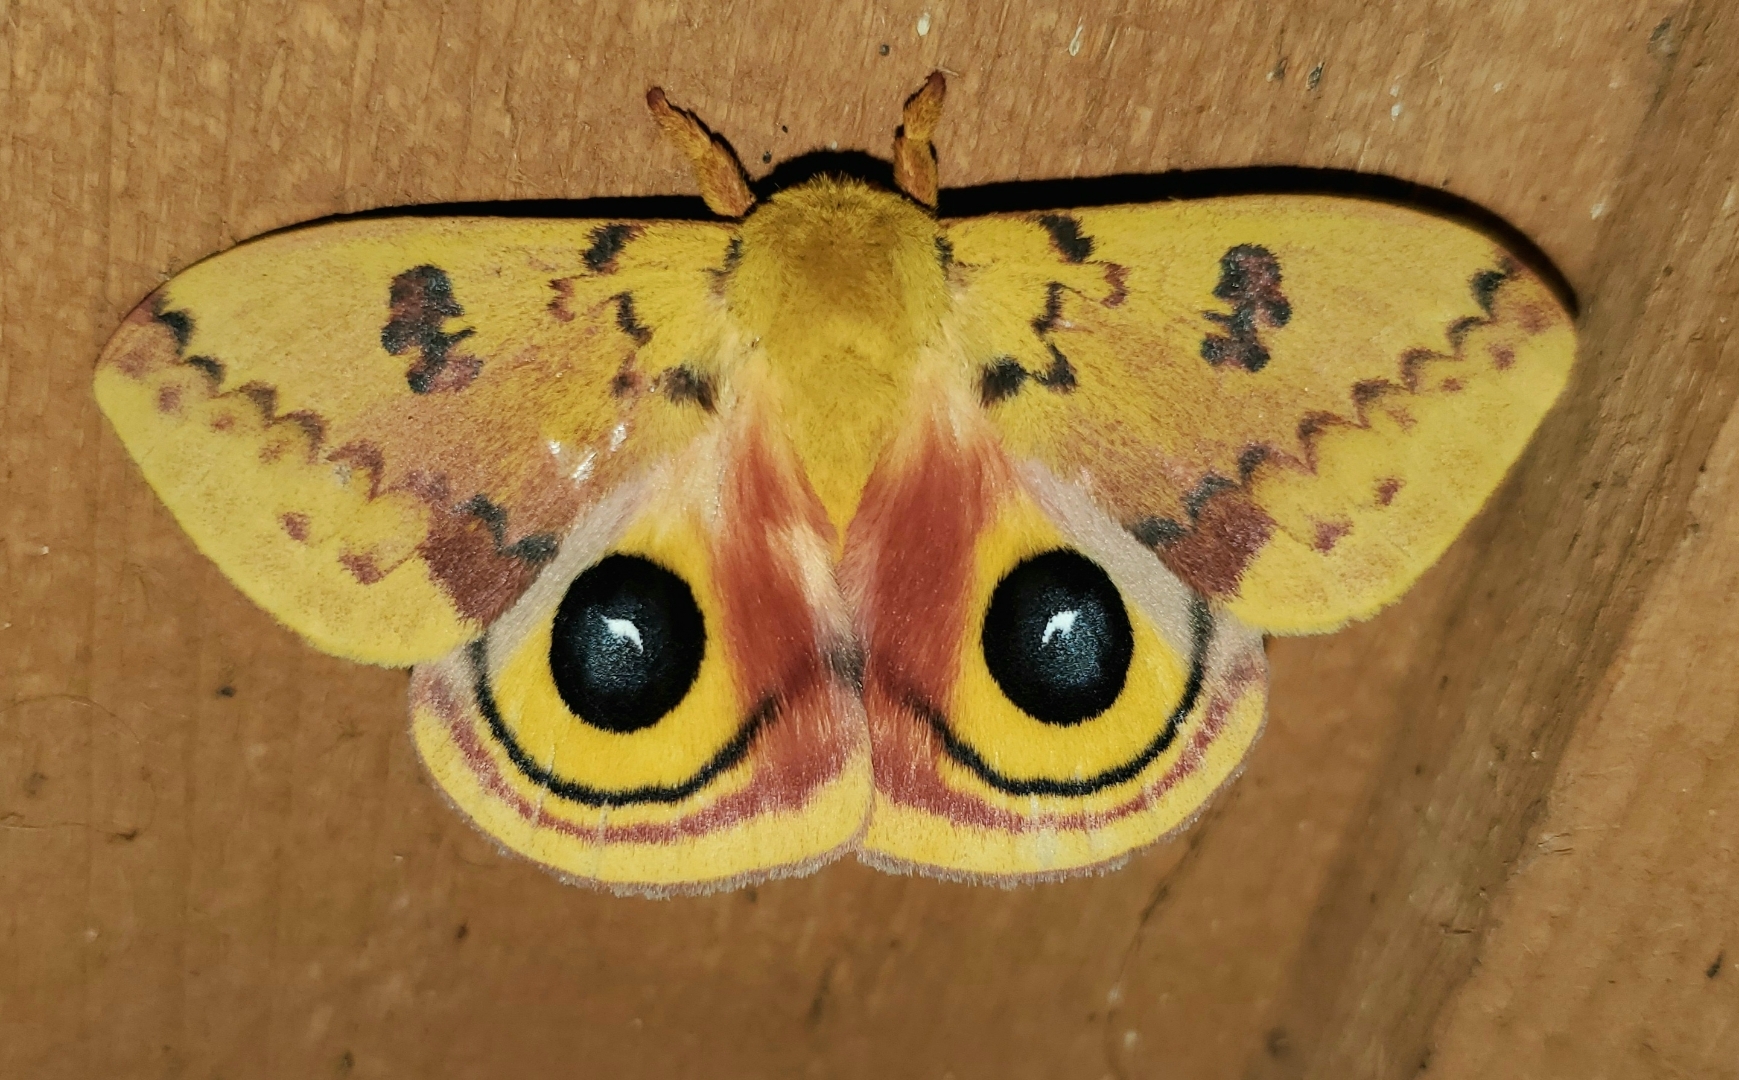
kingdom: Animalia
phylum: Arthropoda
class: Insecta
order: Lepidoptera
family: Saturniidae
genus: Automeris
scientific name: Automeris io
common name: Io moth
